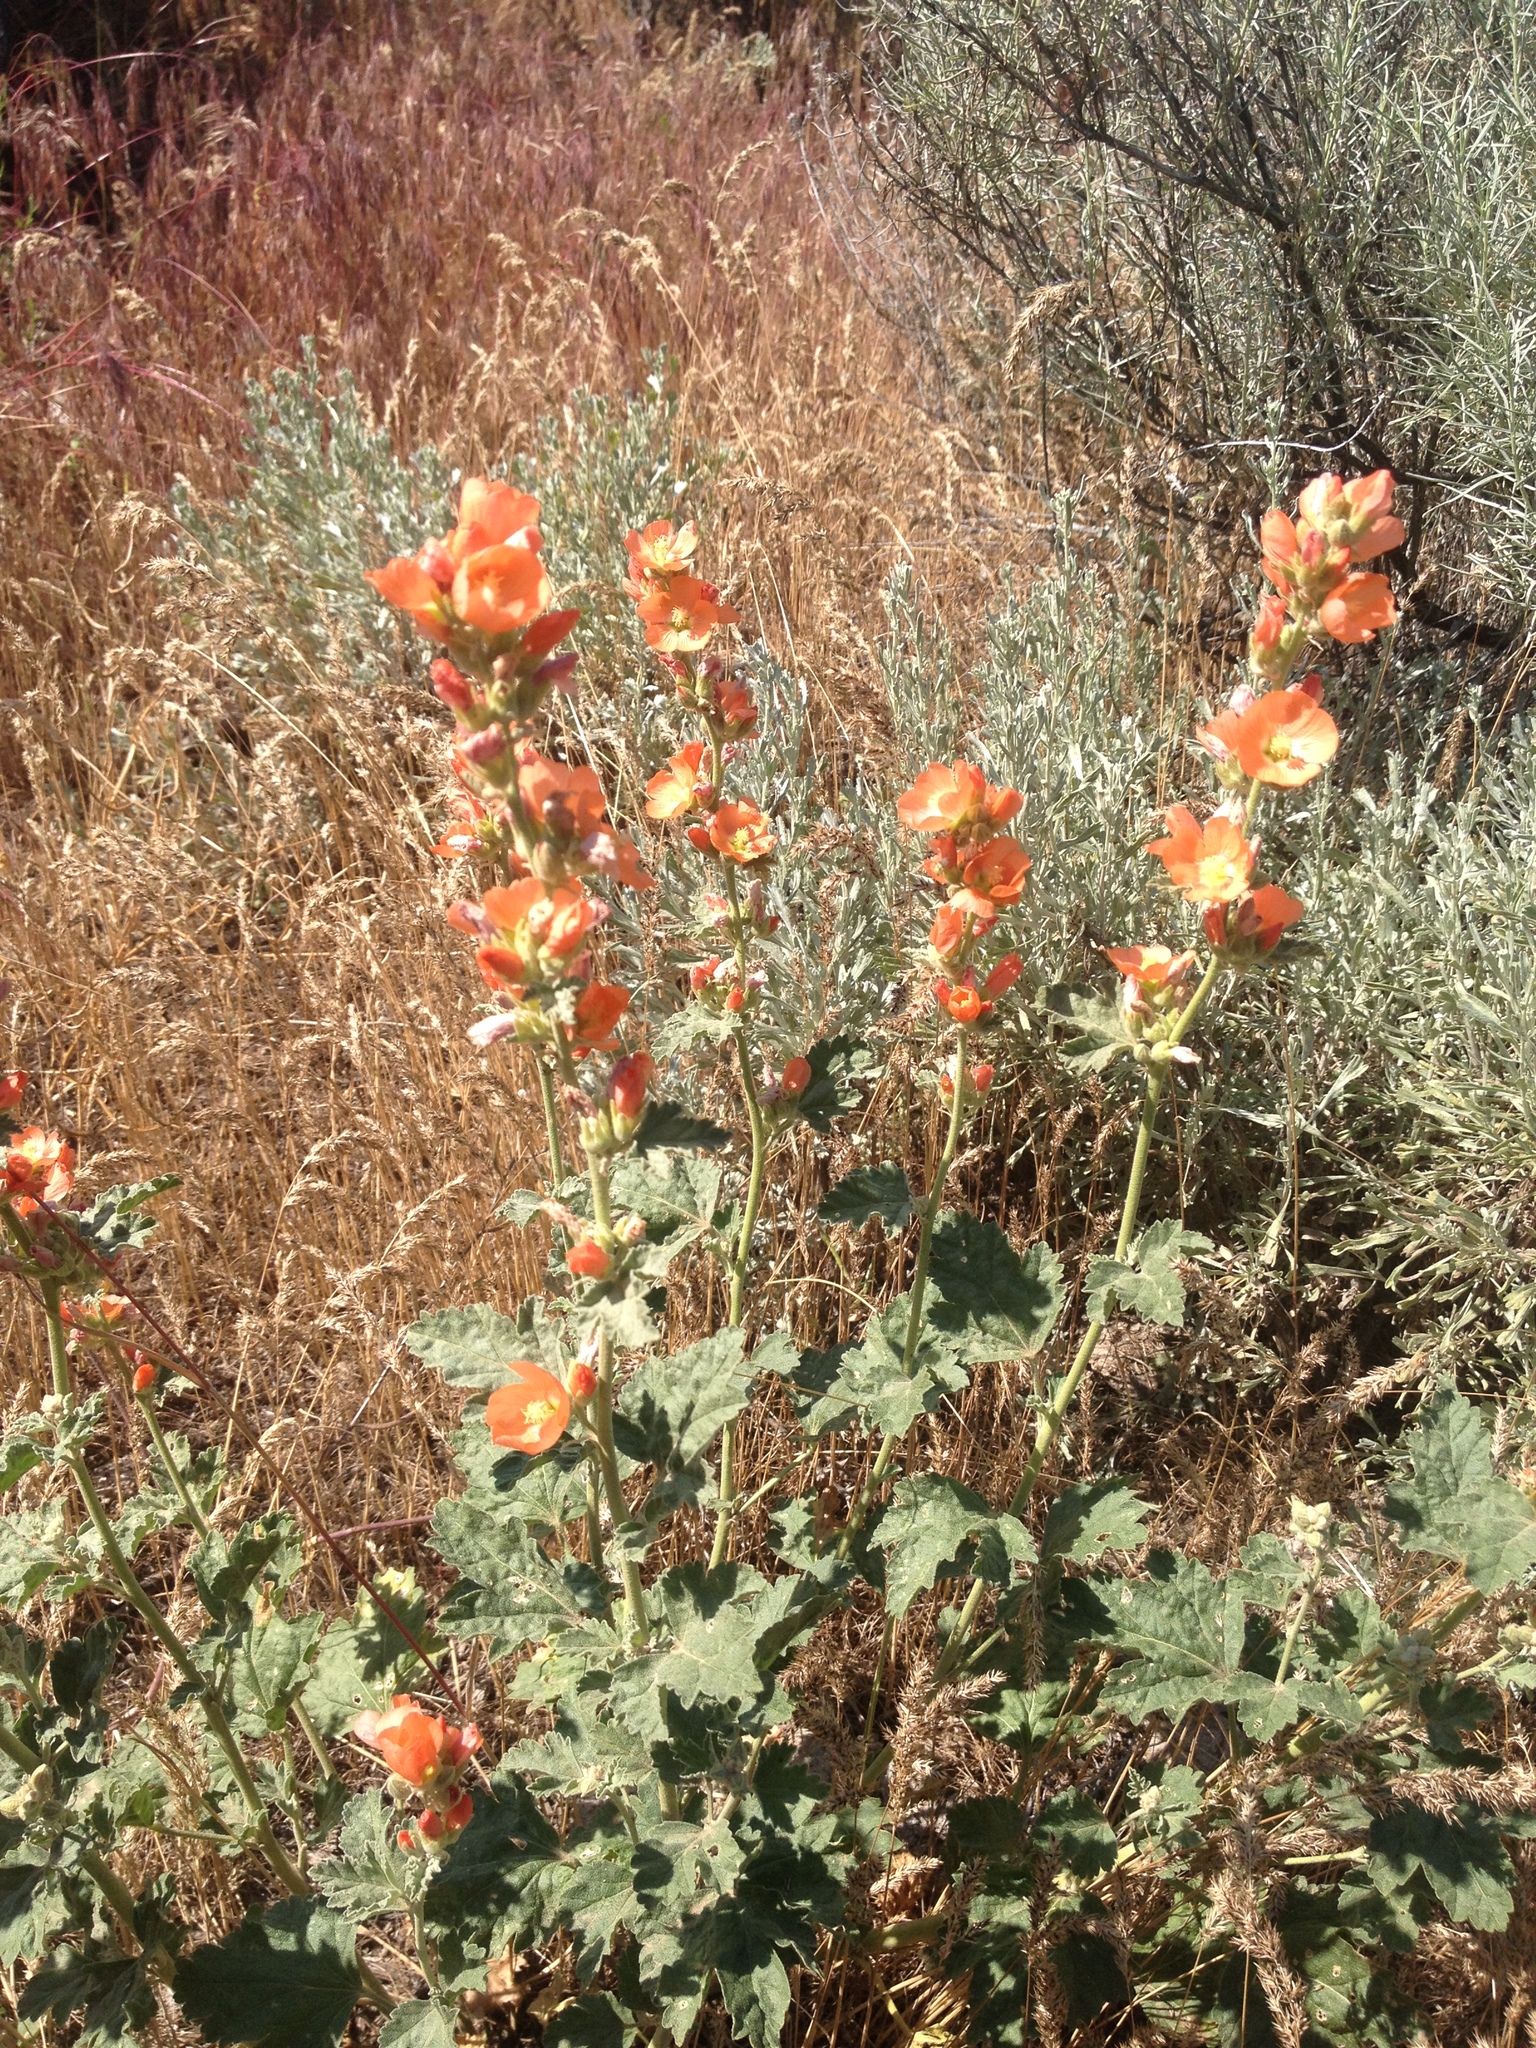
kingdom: Plantae
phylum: Tracheophyta
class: Magnoliopsida
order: Malvales
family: Malvaceae
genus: Sphaeralcea
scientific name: Sphaeralcea munroana
